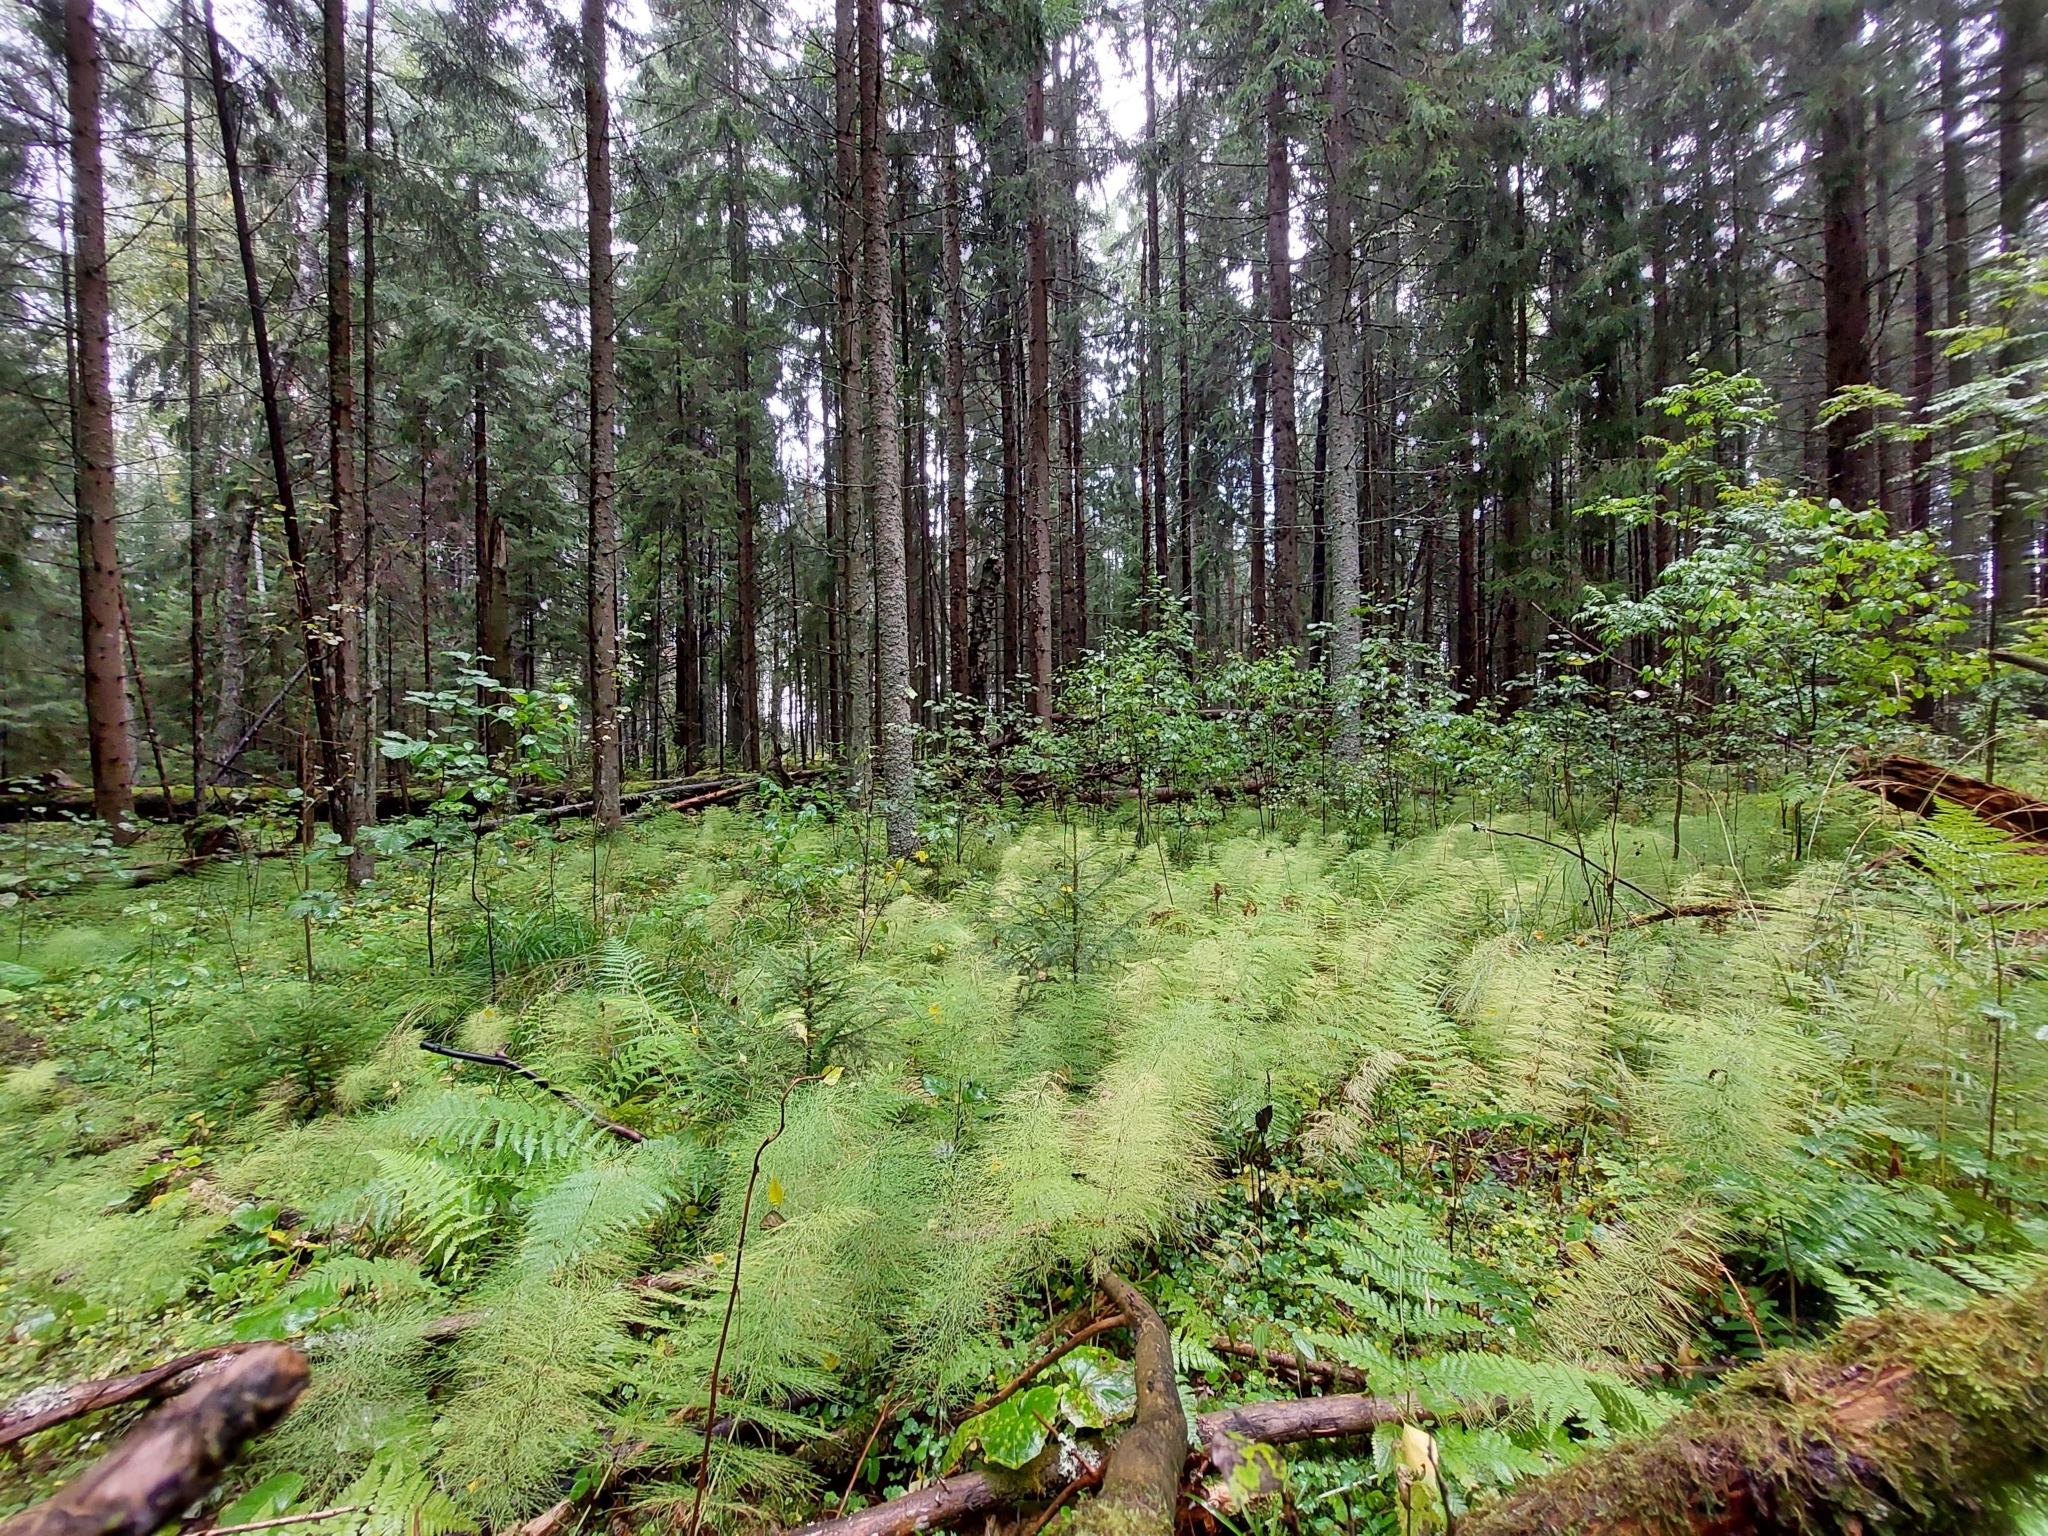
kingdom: Plantae
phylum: Tracheophyta
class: Polypodiopsida
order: Equisetales
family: Equisetaceae
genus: Equisetum
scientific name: Equisetum sylvaticum
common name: Wood horsetail
